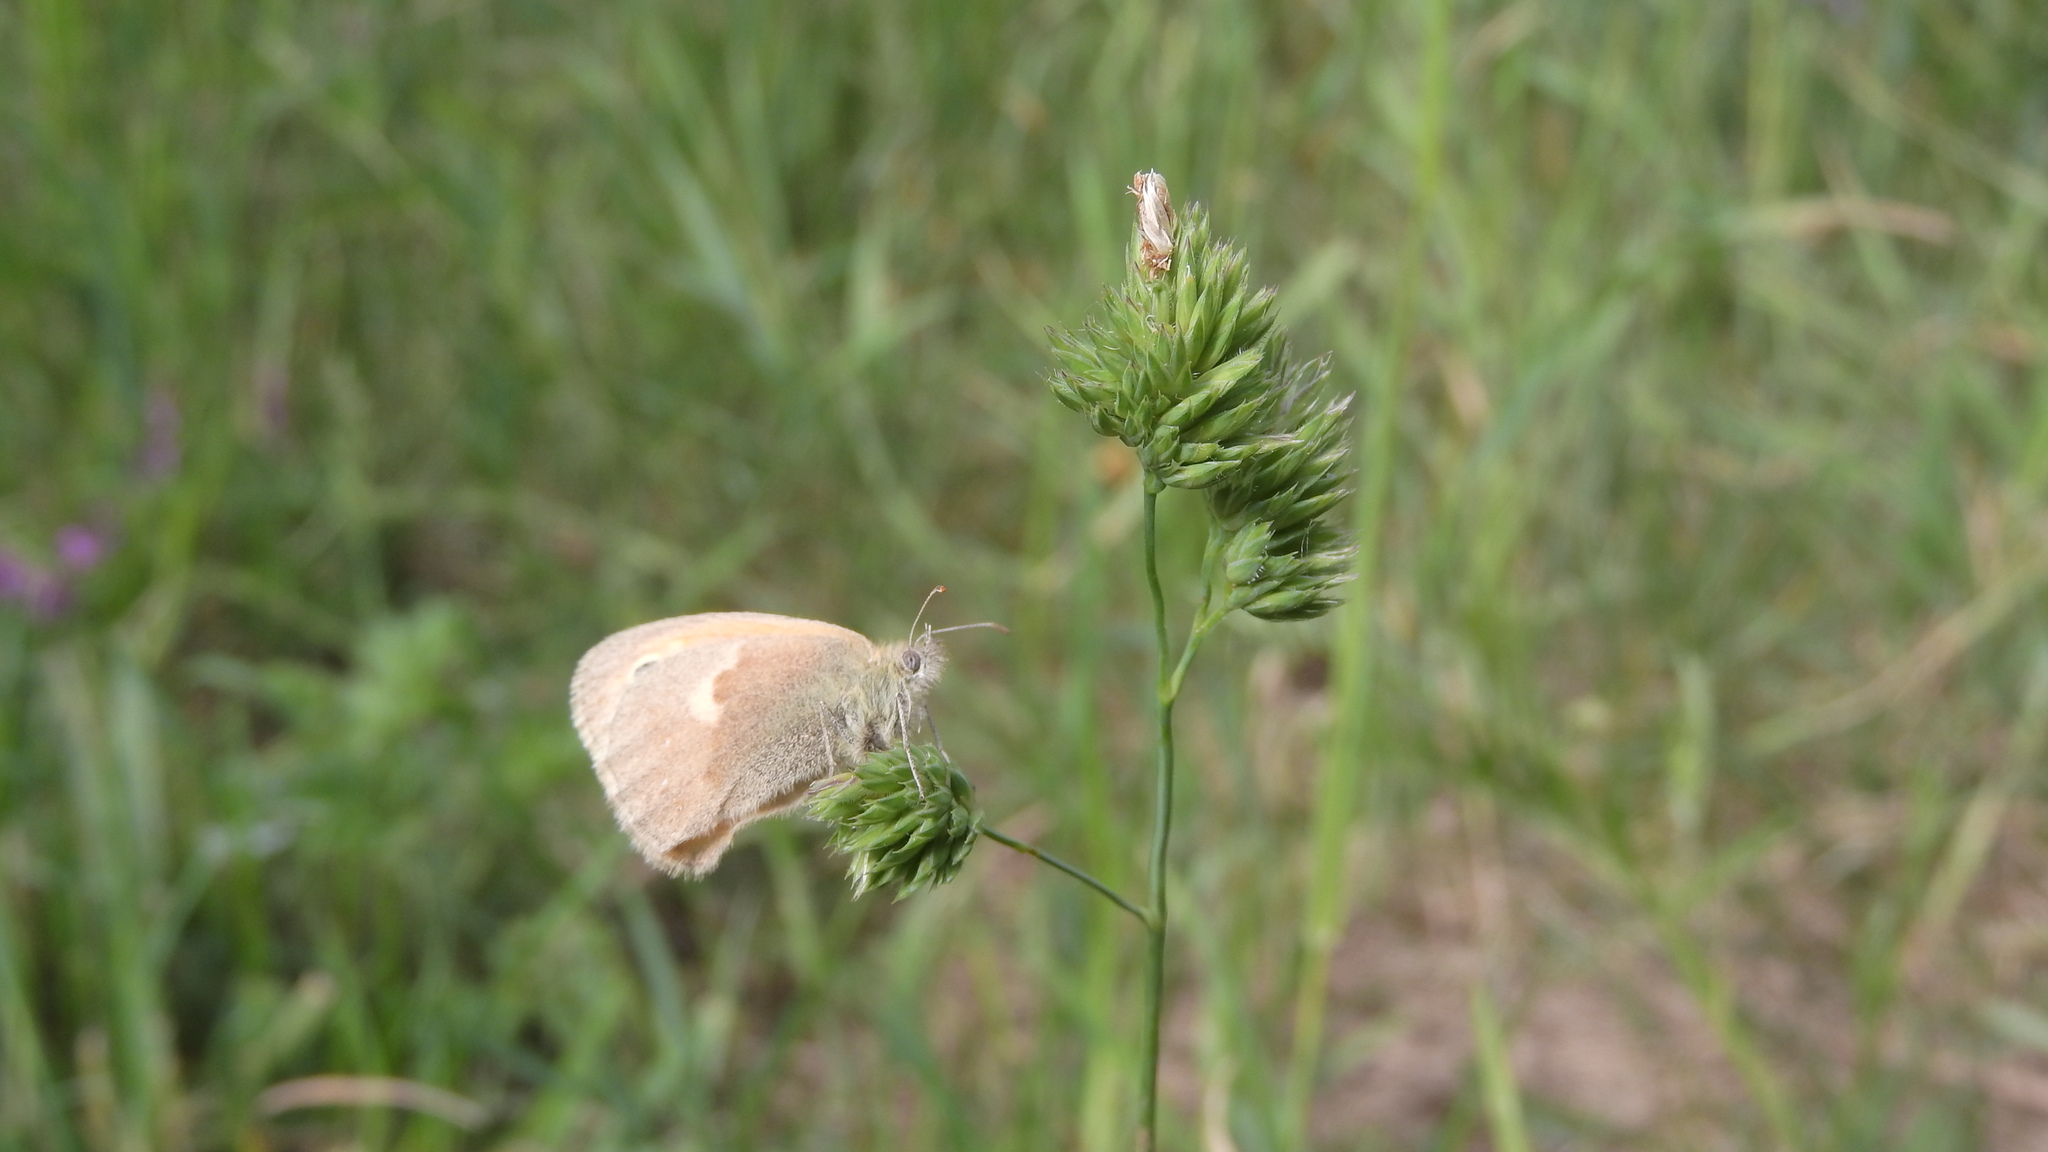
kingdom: Animalia
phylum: Arthropoda
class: Insecta
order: Lepidoptera
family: Nymphalidae
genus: Coenonympha
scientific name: Coenonympha pamphilus
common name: Small heath
